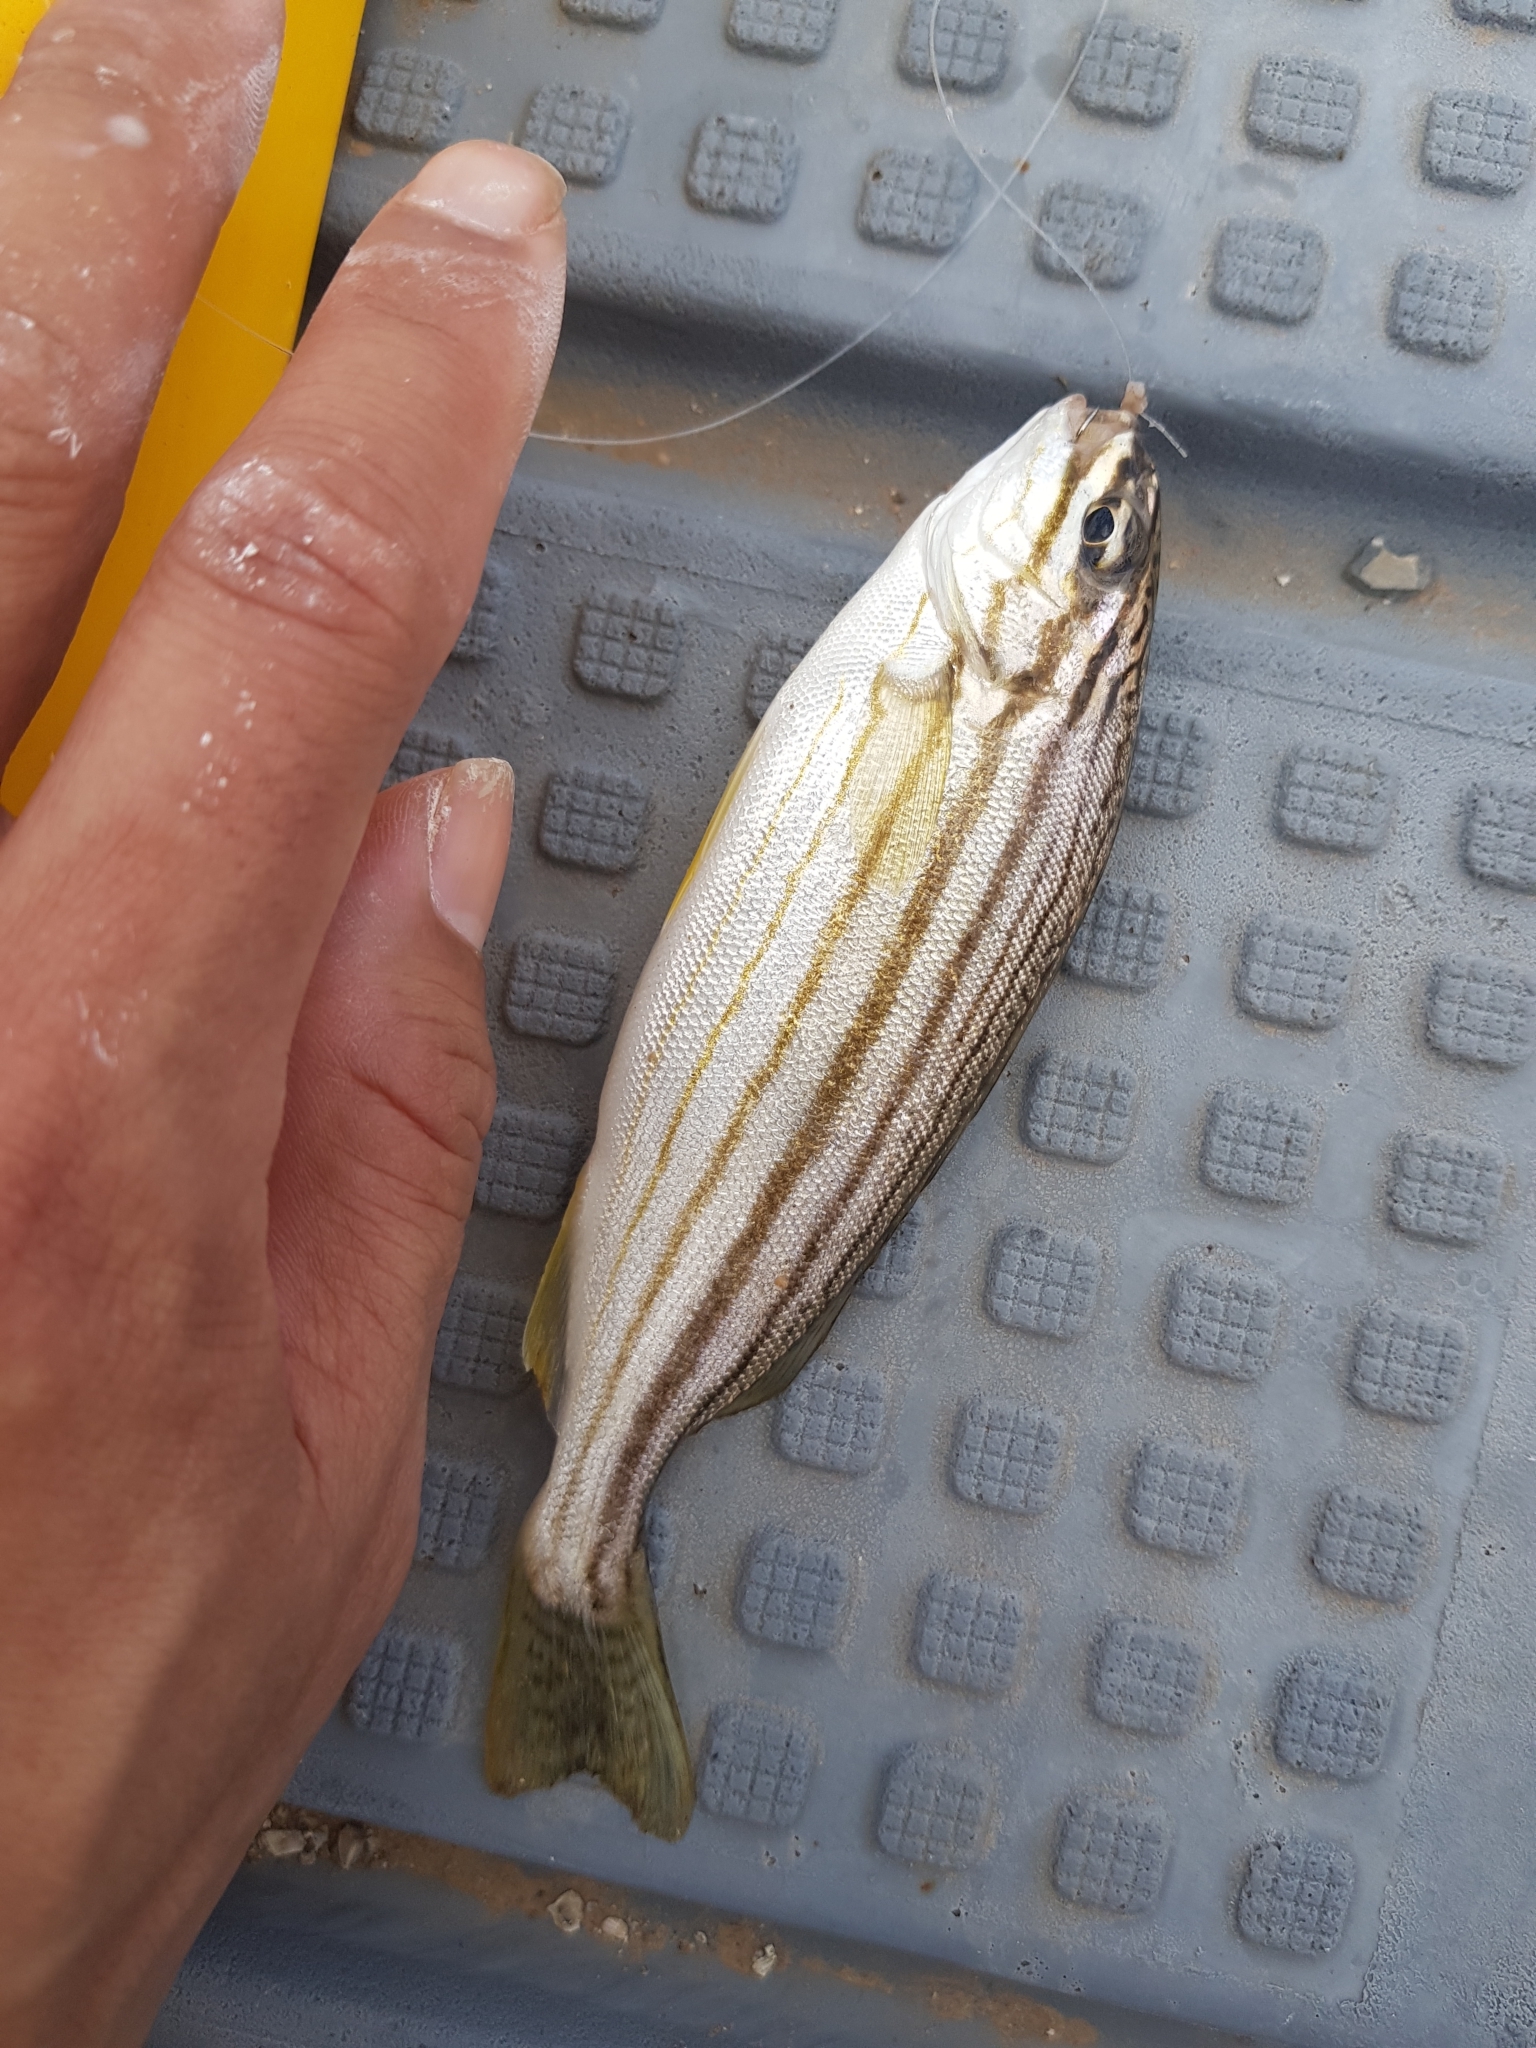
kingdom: Animalia
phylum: Chordata
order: Perciformes
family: Terapontidae
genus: Pelates
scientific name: Pelates octolineatus
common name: Eight-lined trumpeter
